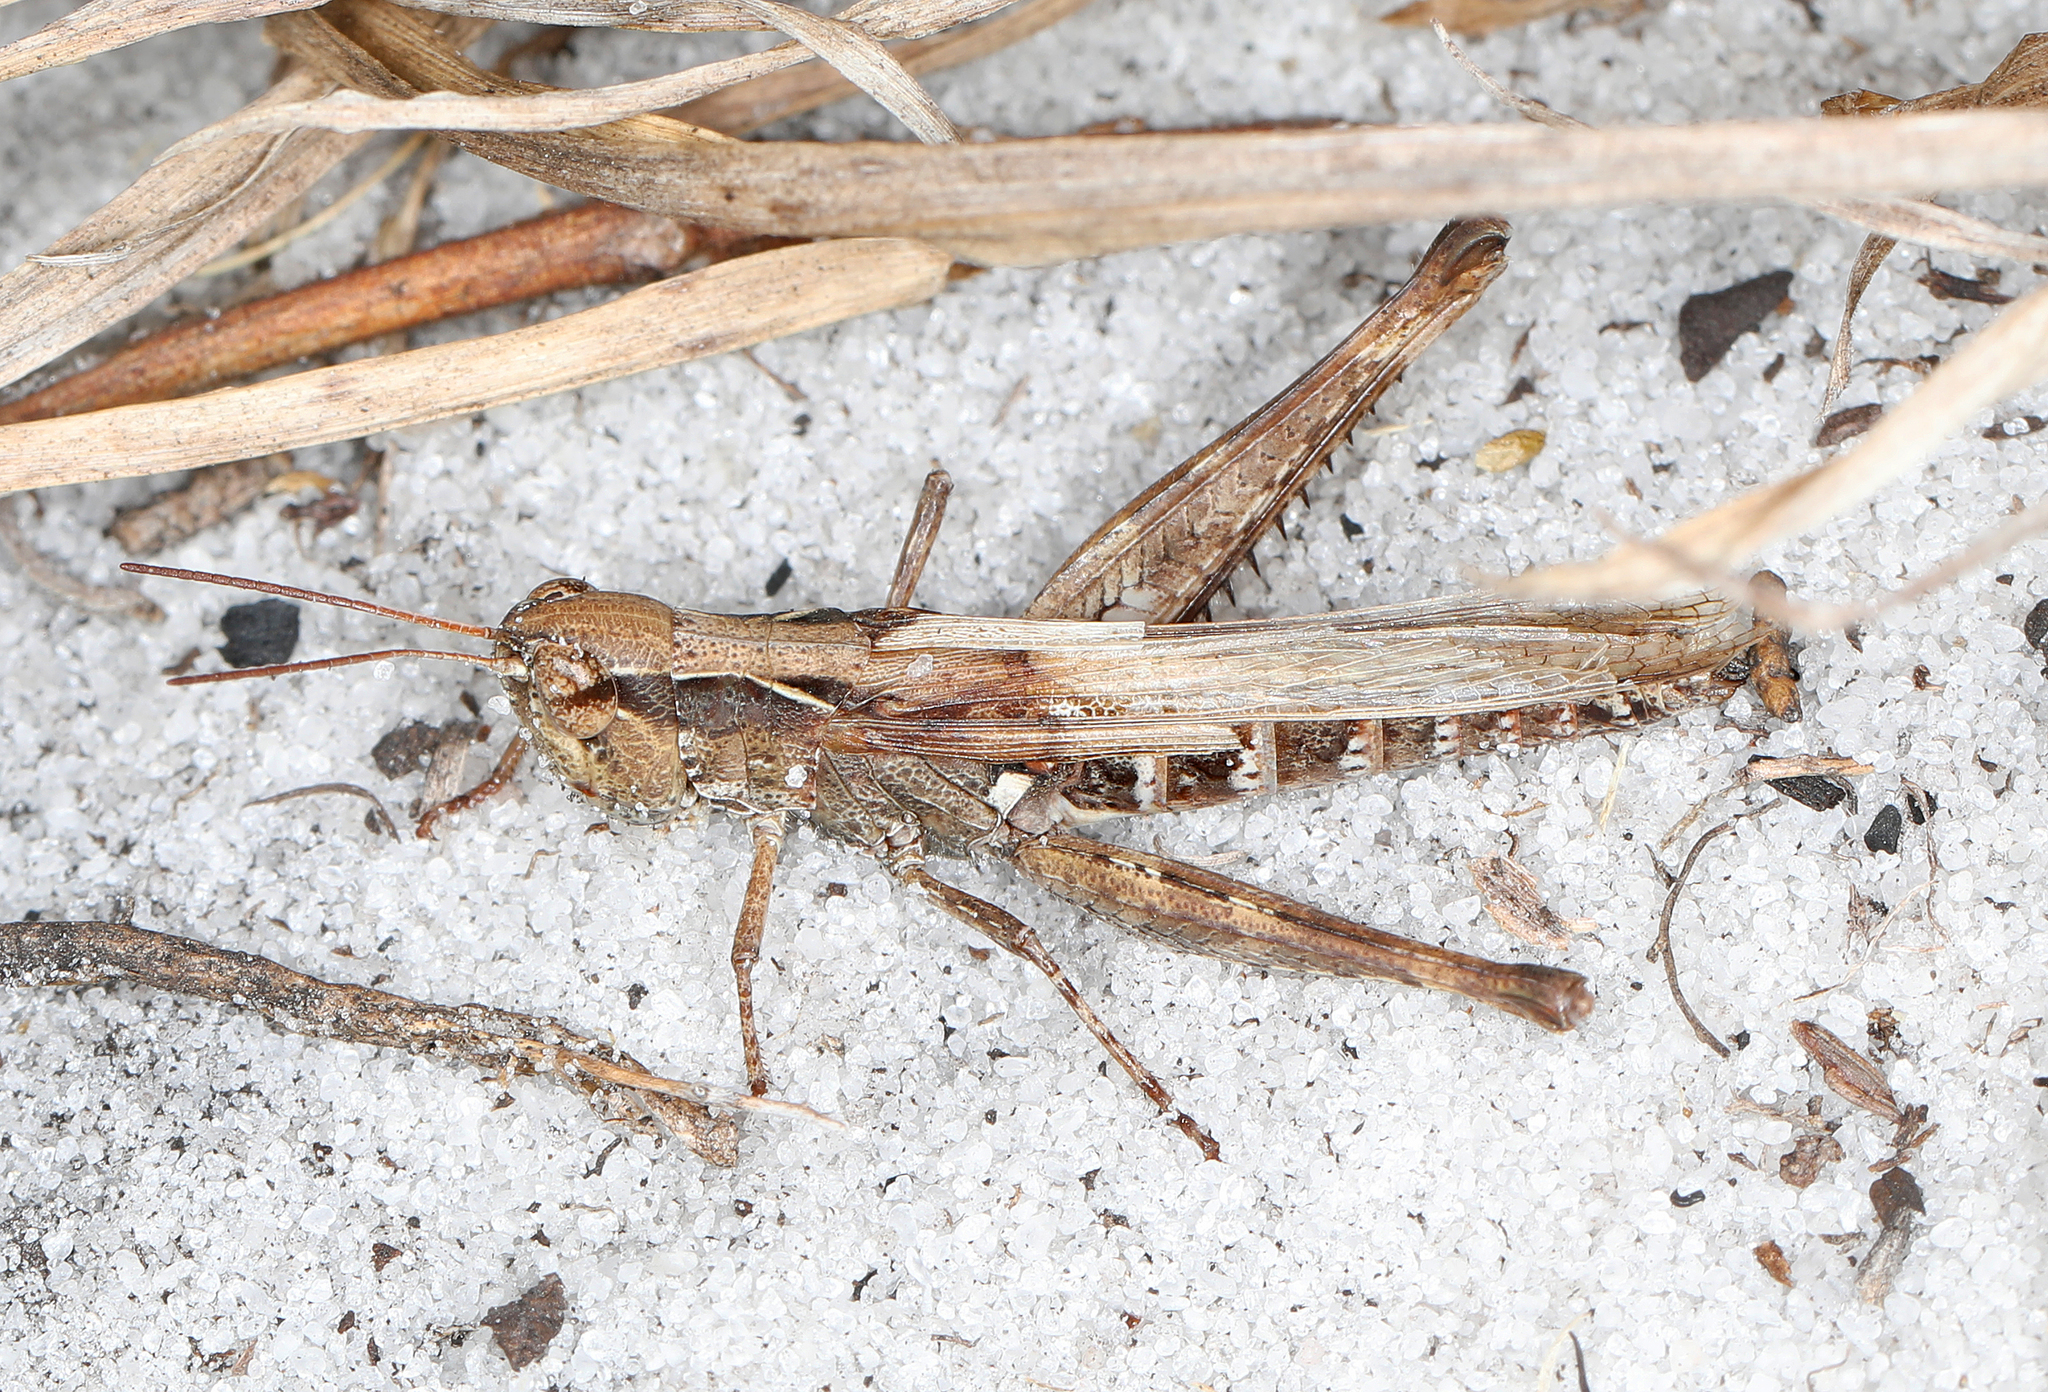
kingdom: Animalia
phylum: Arthropoda
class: Insecta
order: Orthoptera
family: Acrididae
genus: Orphulella
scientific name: Orphulella pelidna
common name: Spotted-wing grasshopper
